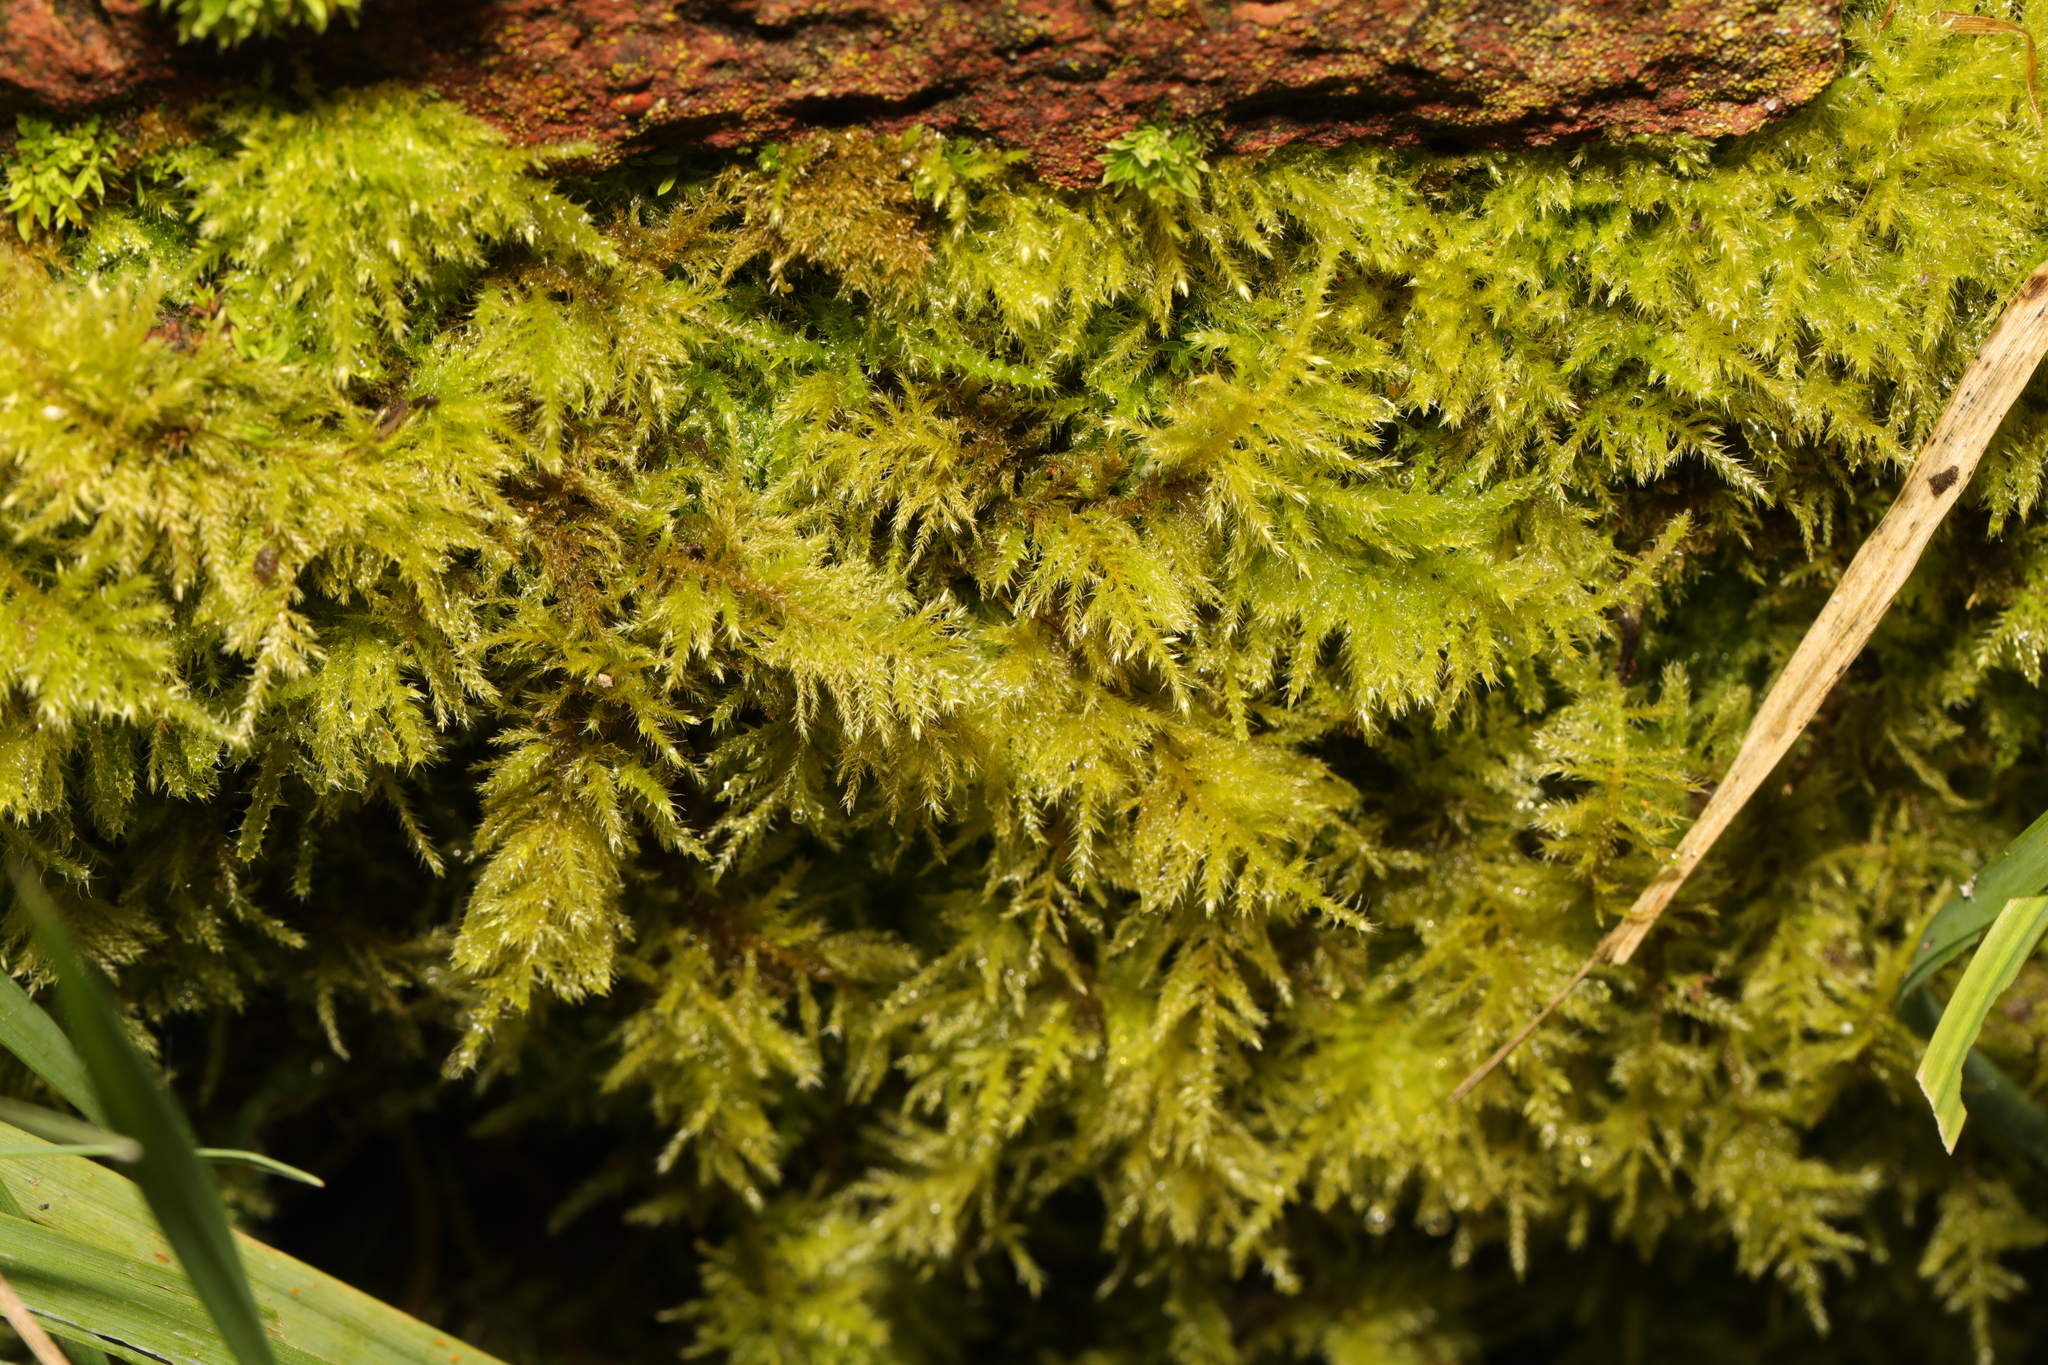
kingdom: Plantae
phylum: Bryophyta
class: Bryopsida
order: Hypnales
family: Brachytheciaceae
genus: Kindbergia
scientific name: Kindbergia praelonga
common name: Slender beaked moss
